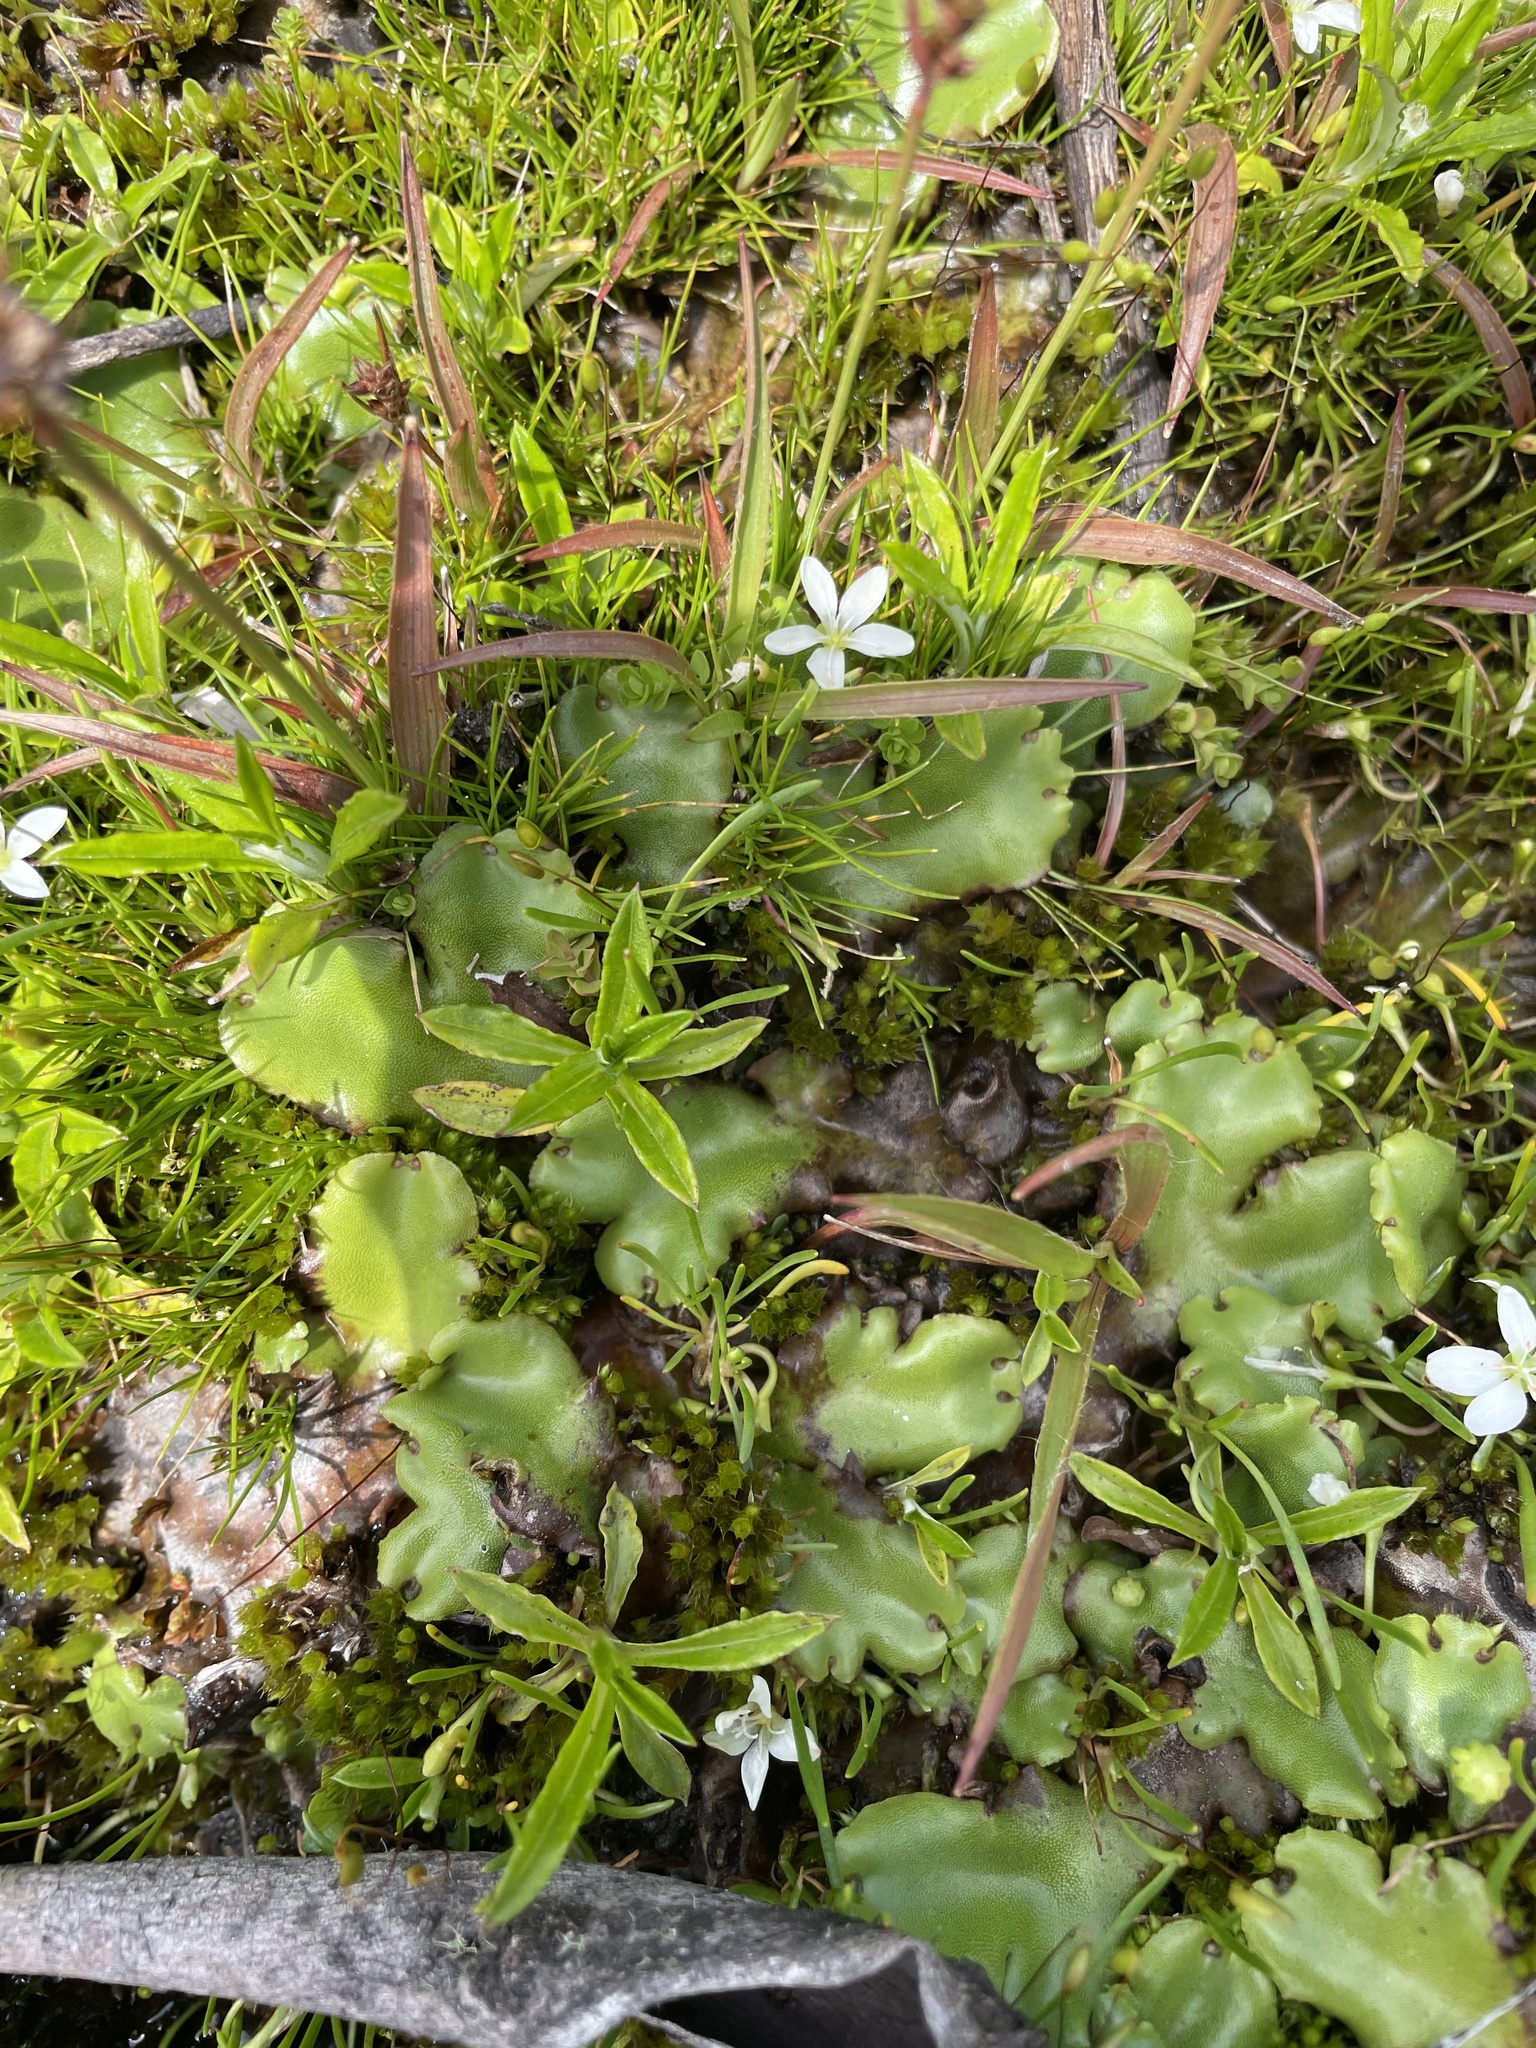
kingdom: Plantae
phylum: Marchantiophyta
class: Marchantiopsida
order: Marchantiales
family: Marchantiaceae
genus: Marchantia
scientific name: Marchantia berteroana
